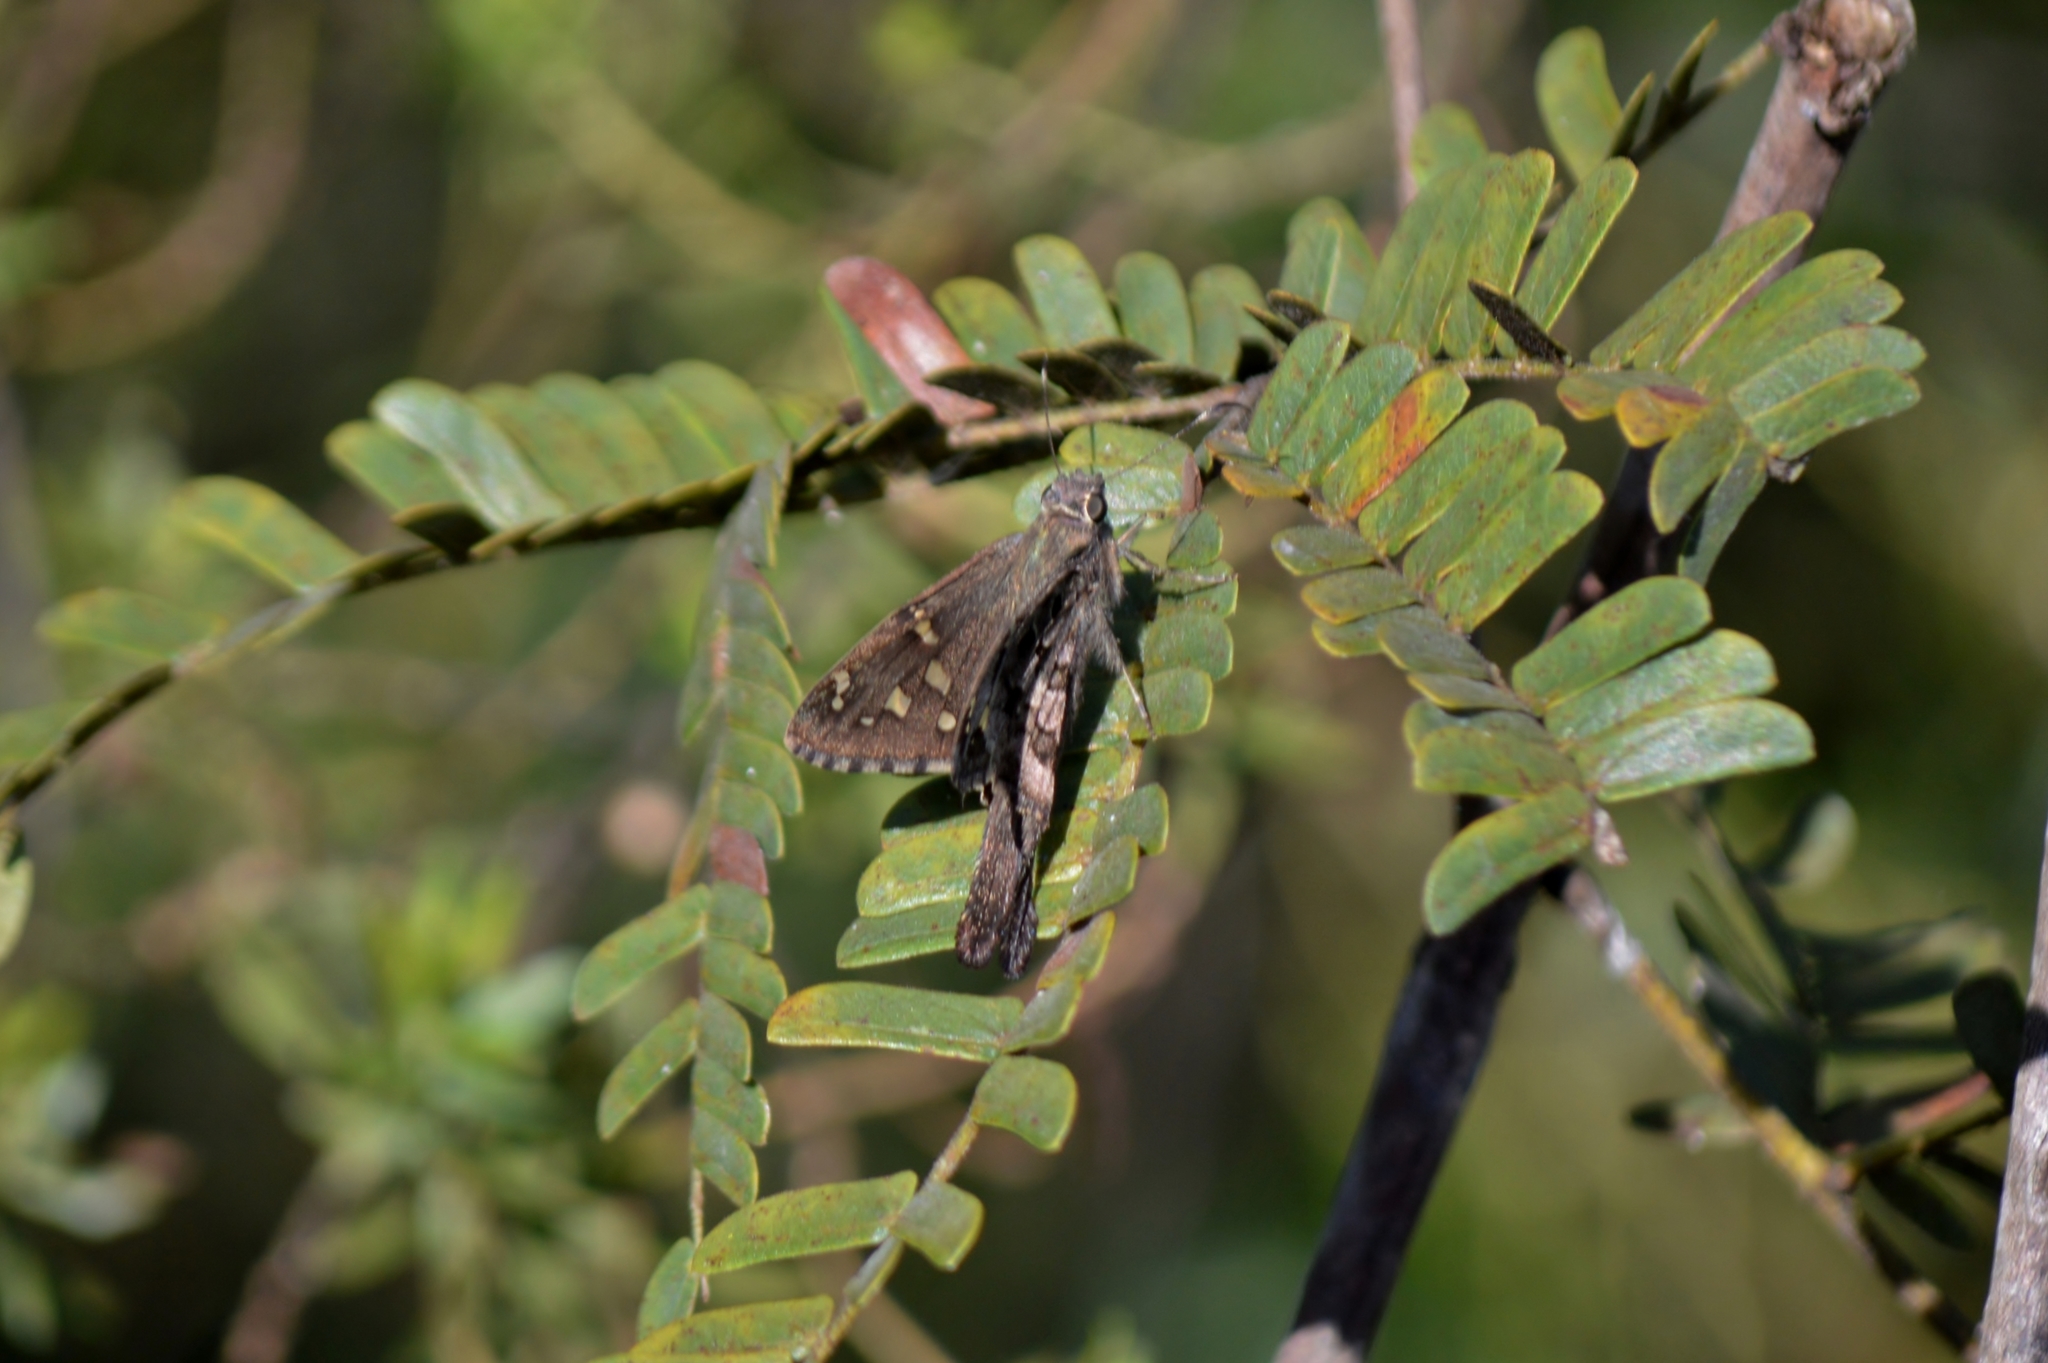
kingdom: Animalia
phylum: Arthropoda
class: Insecta
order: Lepidoptera
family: Hesperiidae
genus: Urbanus
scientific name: Urbanus proteus
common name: Long-tailed skipper
